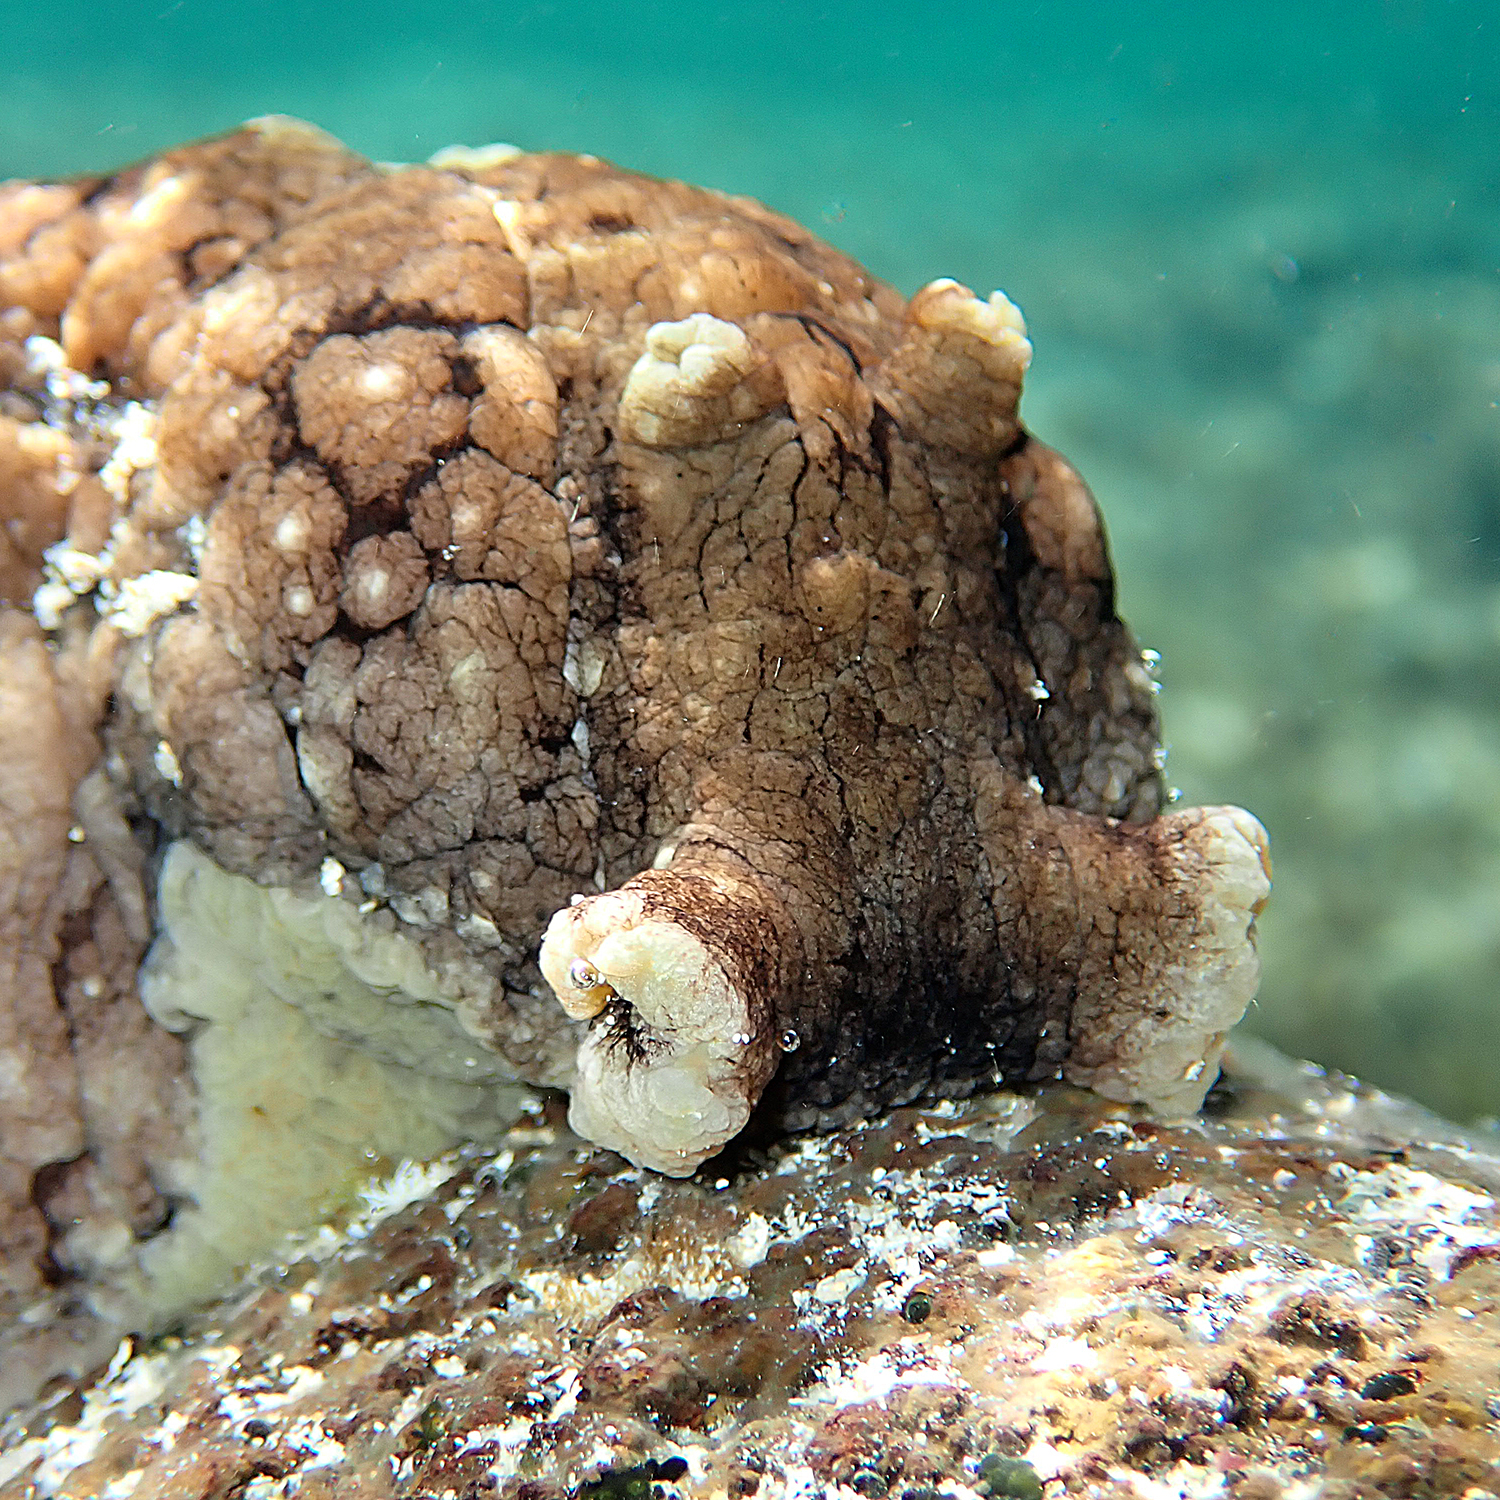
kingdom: Animalia
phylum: Mollusca
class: Gastropoda
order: Aplysiida
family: Aplysiidae
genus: Aplysia
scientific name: Aplysia argus
